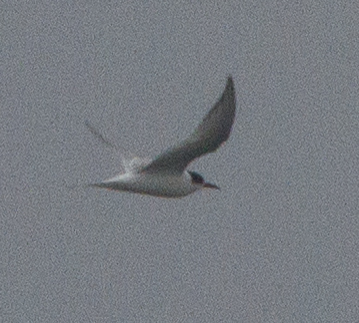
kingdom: Animalia
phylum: Chordata
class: Aves
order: Charadriiformes
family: Laridae
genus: Sterna
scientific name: Sterna paradisaea
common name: Arctic tern
